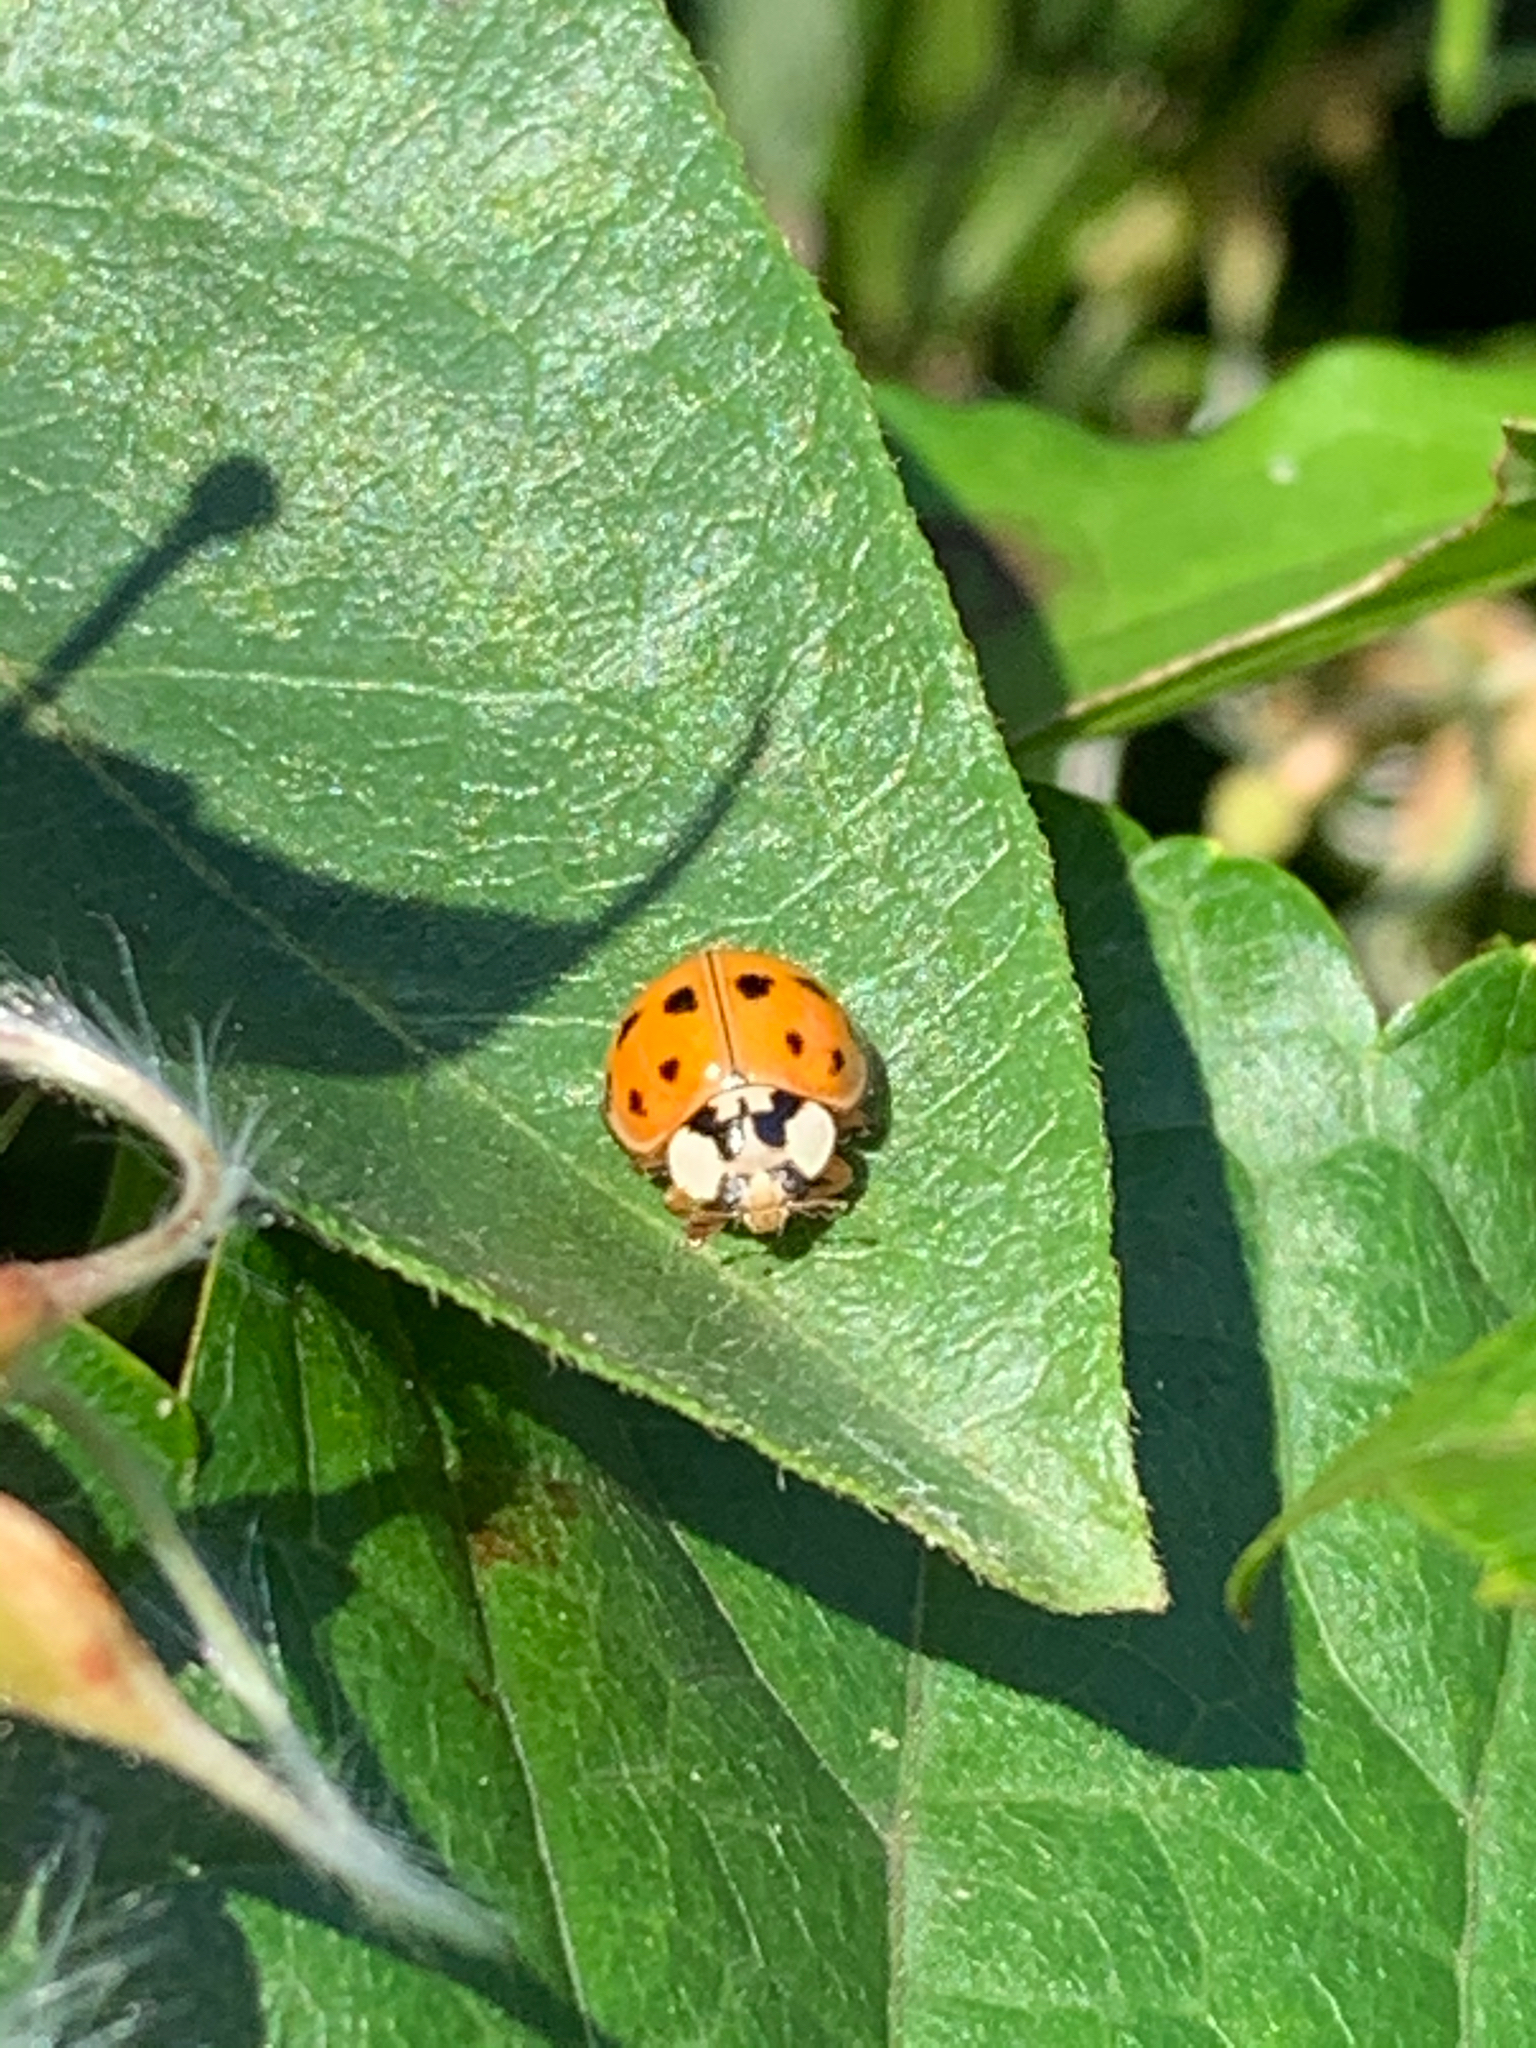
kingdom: Animalia
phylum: Arthropoda
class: Insecta
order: Coleoptera
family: Coccinellidae
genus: Harmonia
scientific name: Harmonia axyridis
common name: Harlequin ladybird
